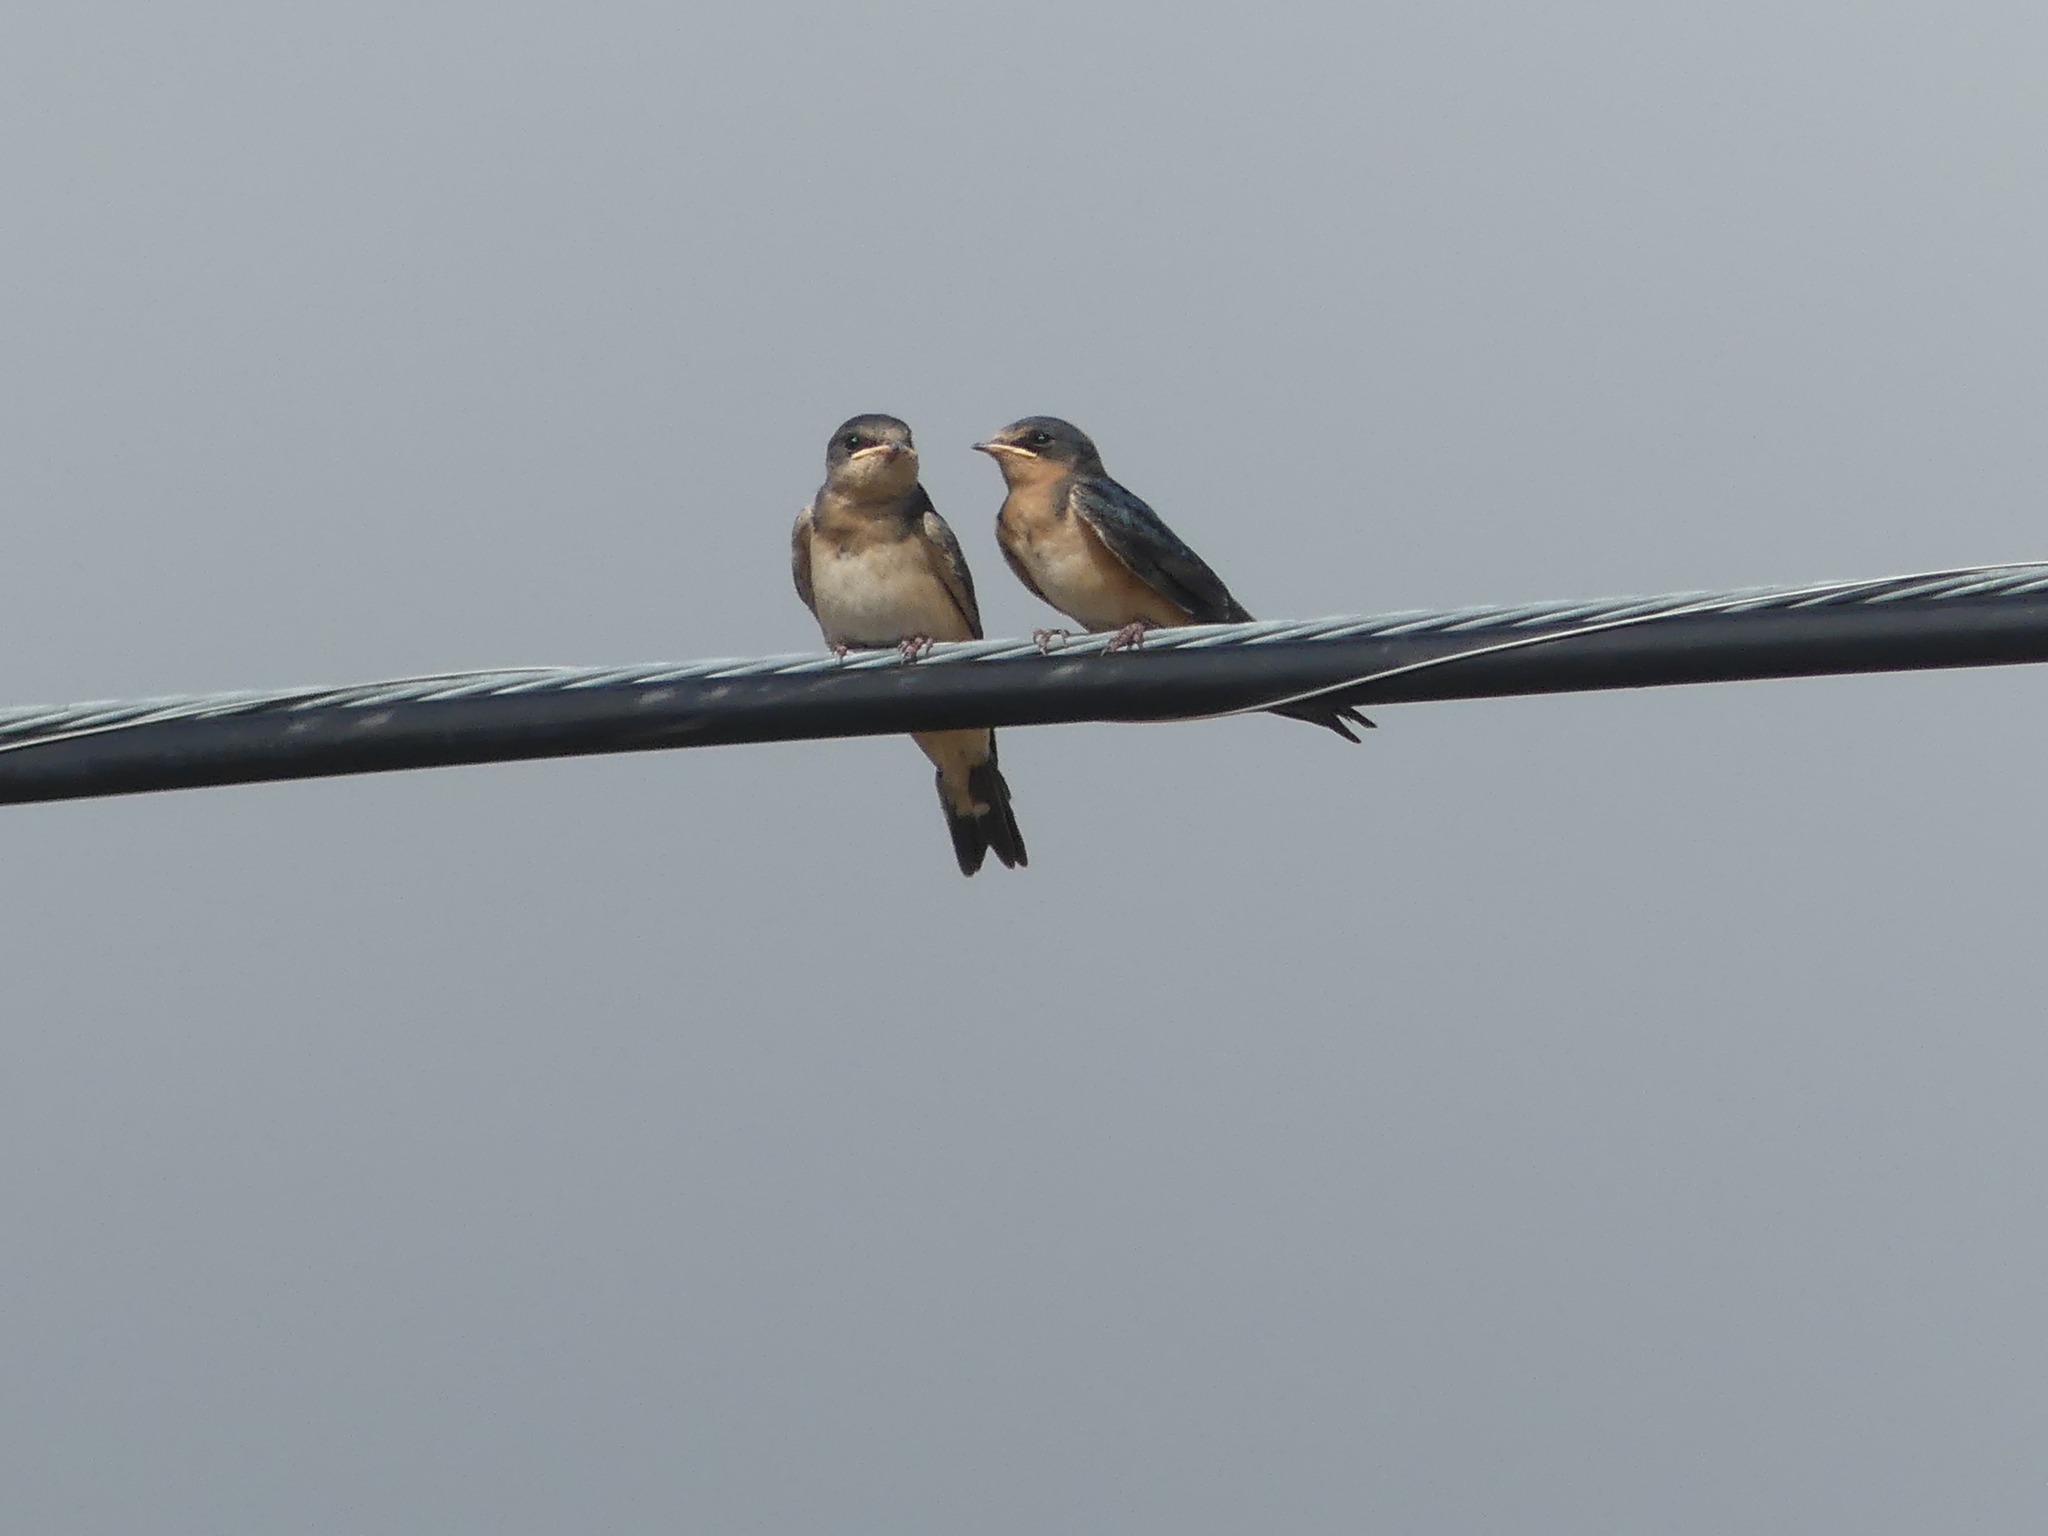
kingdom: Animalia
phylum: Chordata
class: Aves
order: Passeriformes
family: Hirundinidae
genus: Hirundo
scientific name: Hirundo rustica
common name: Barn swallow
